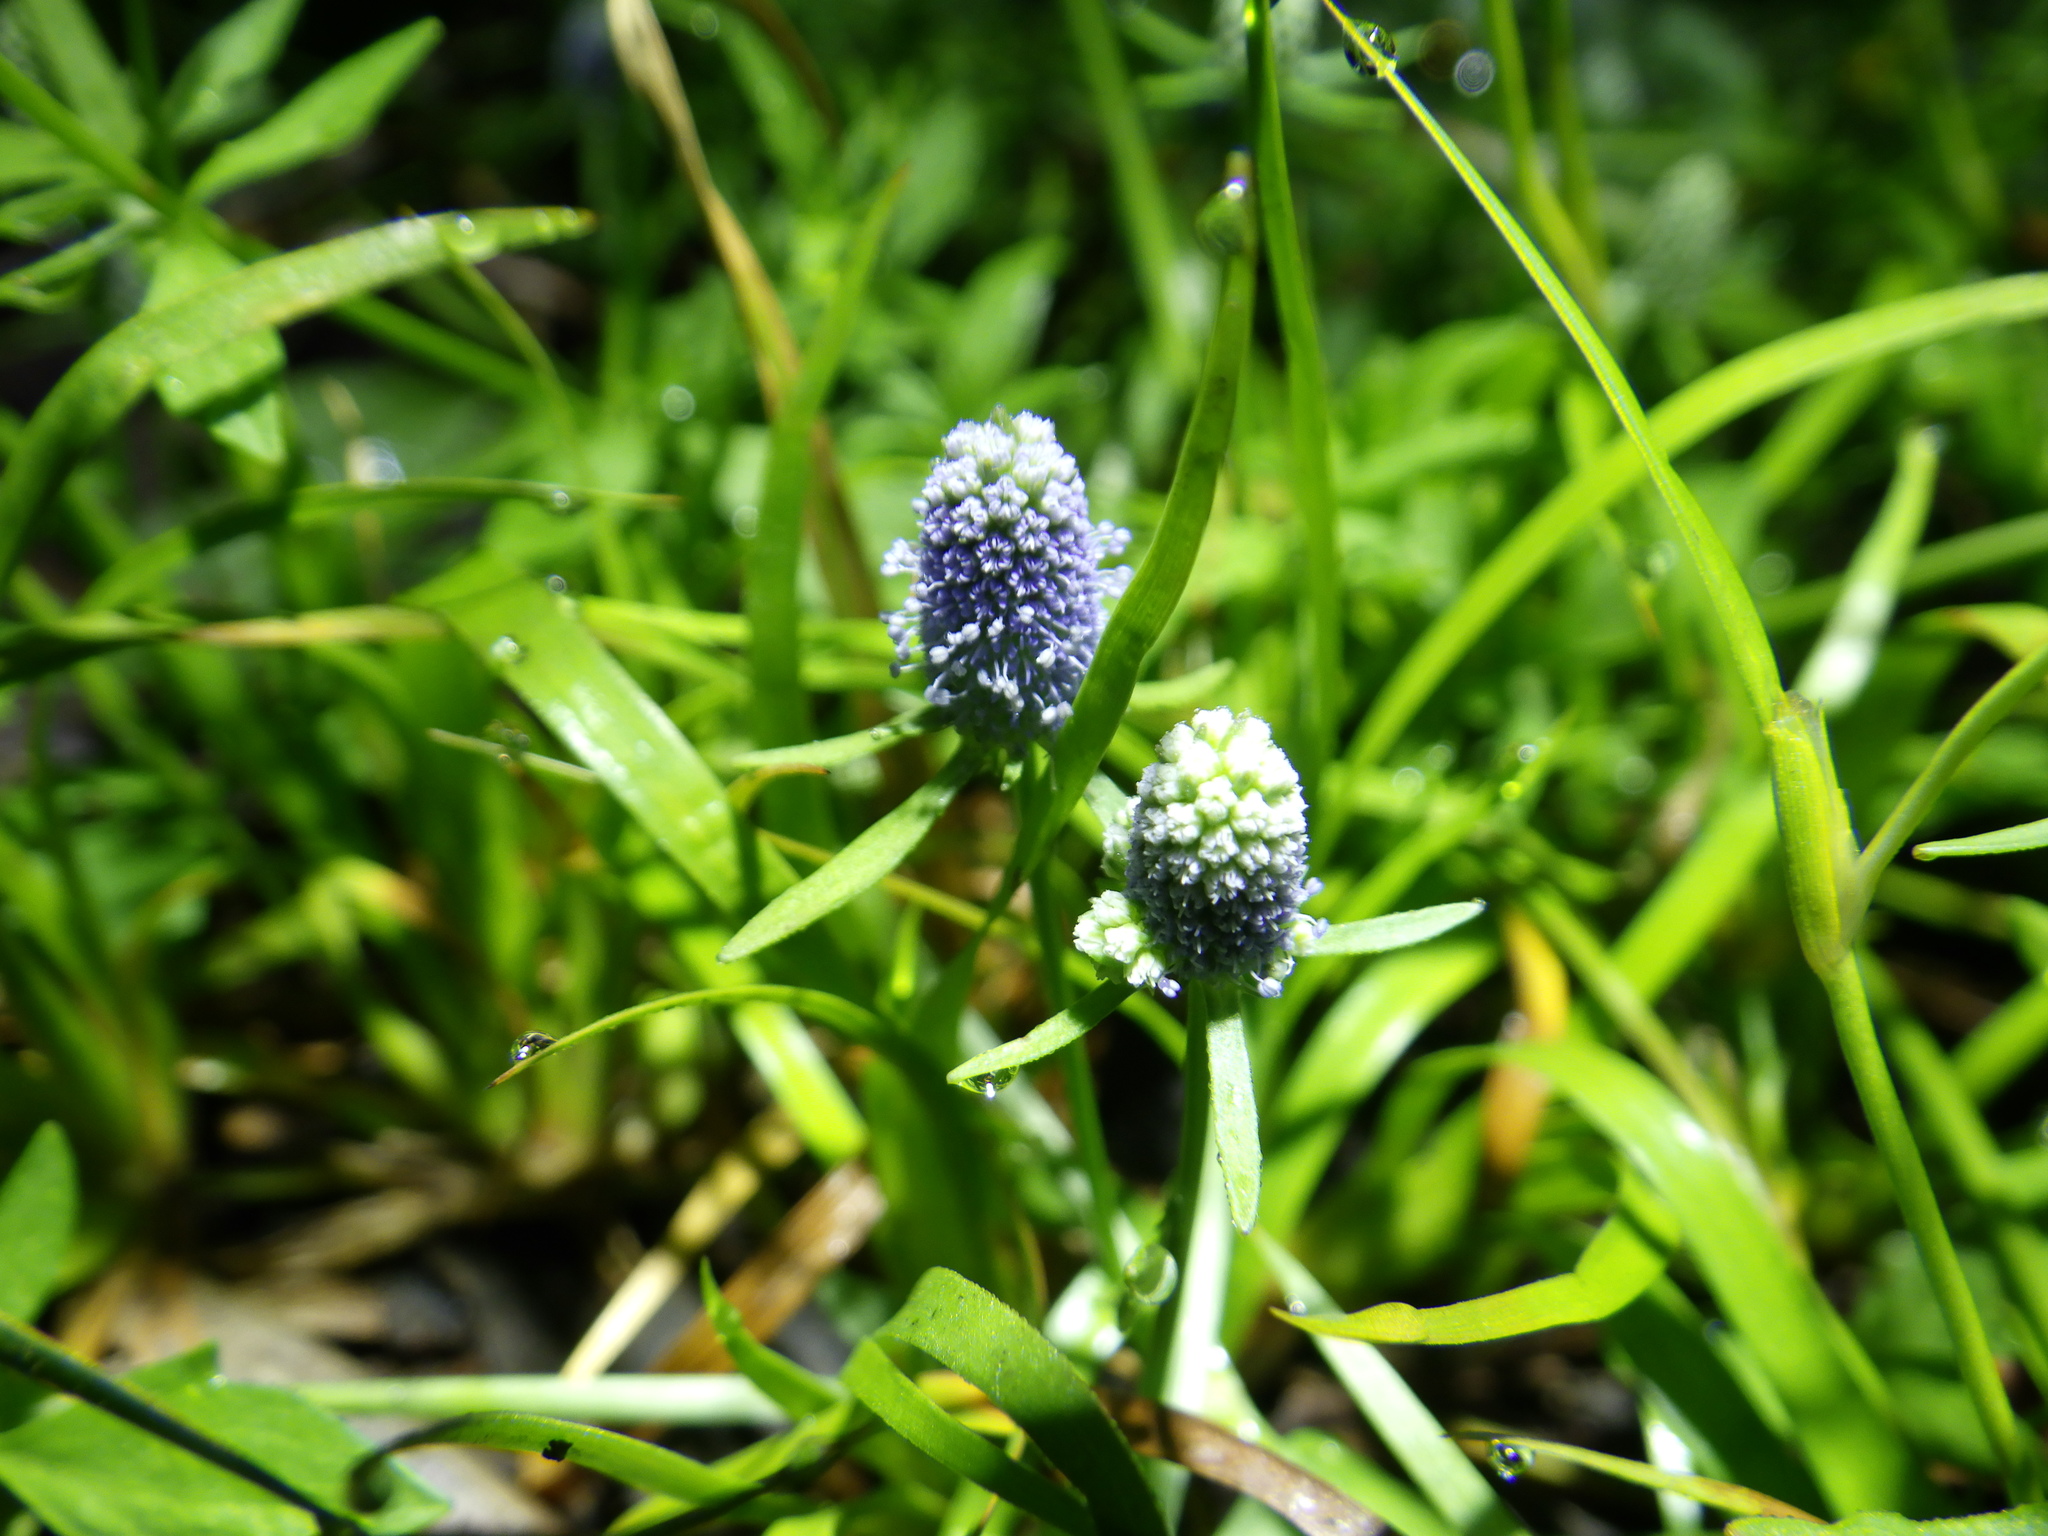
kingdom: Plantae
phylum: Tracheophyta
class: Magnoliopsida
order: Apiales
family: Apiaceae
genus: Eryngium
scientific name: Eryngium prostratum
